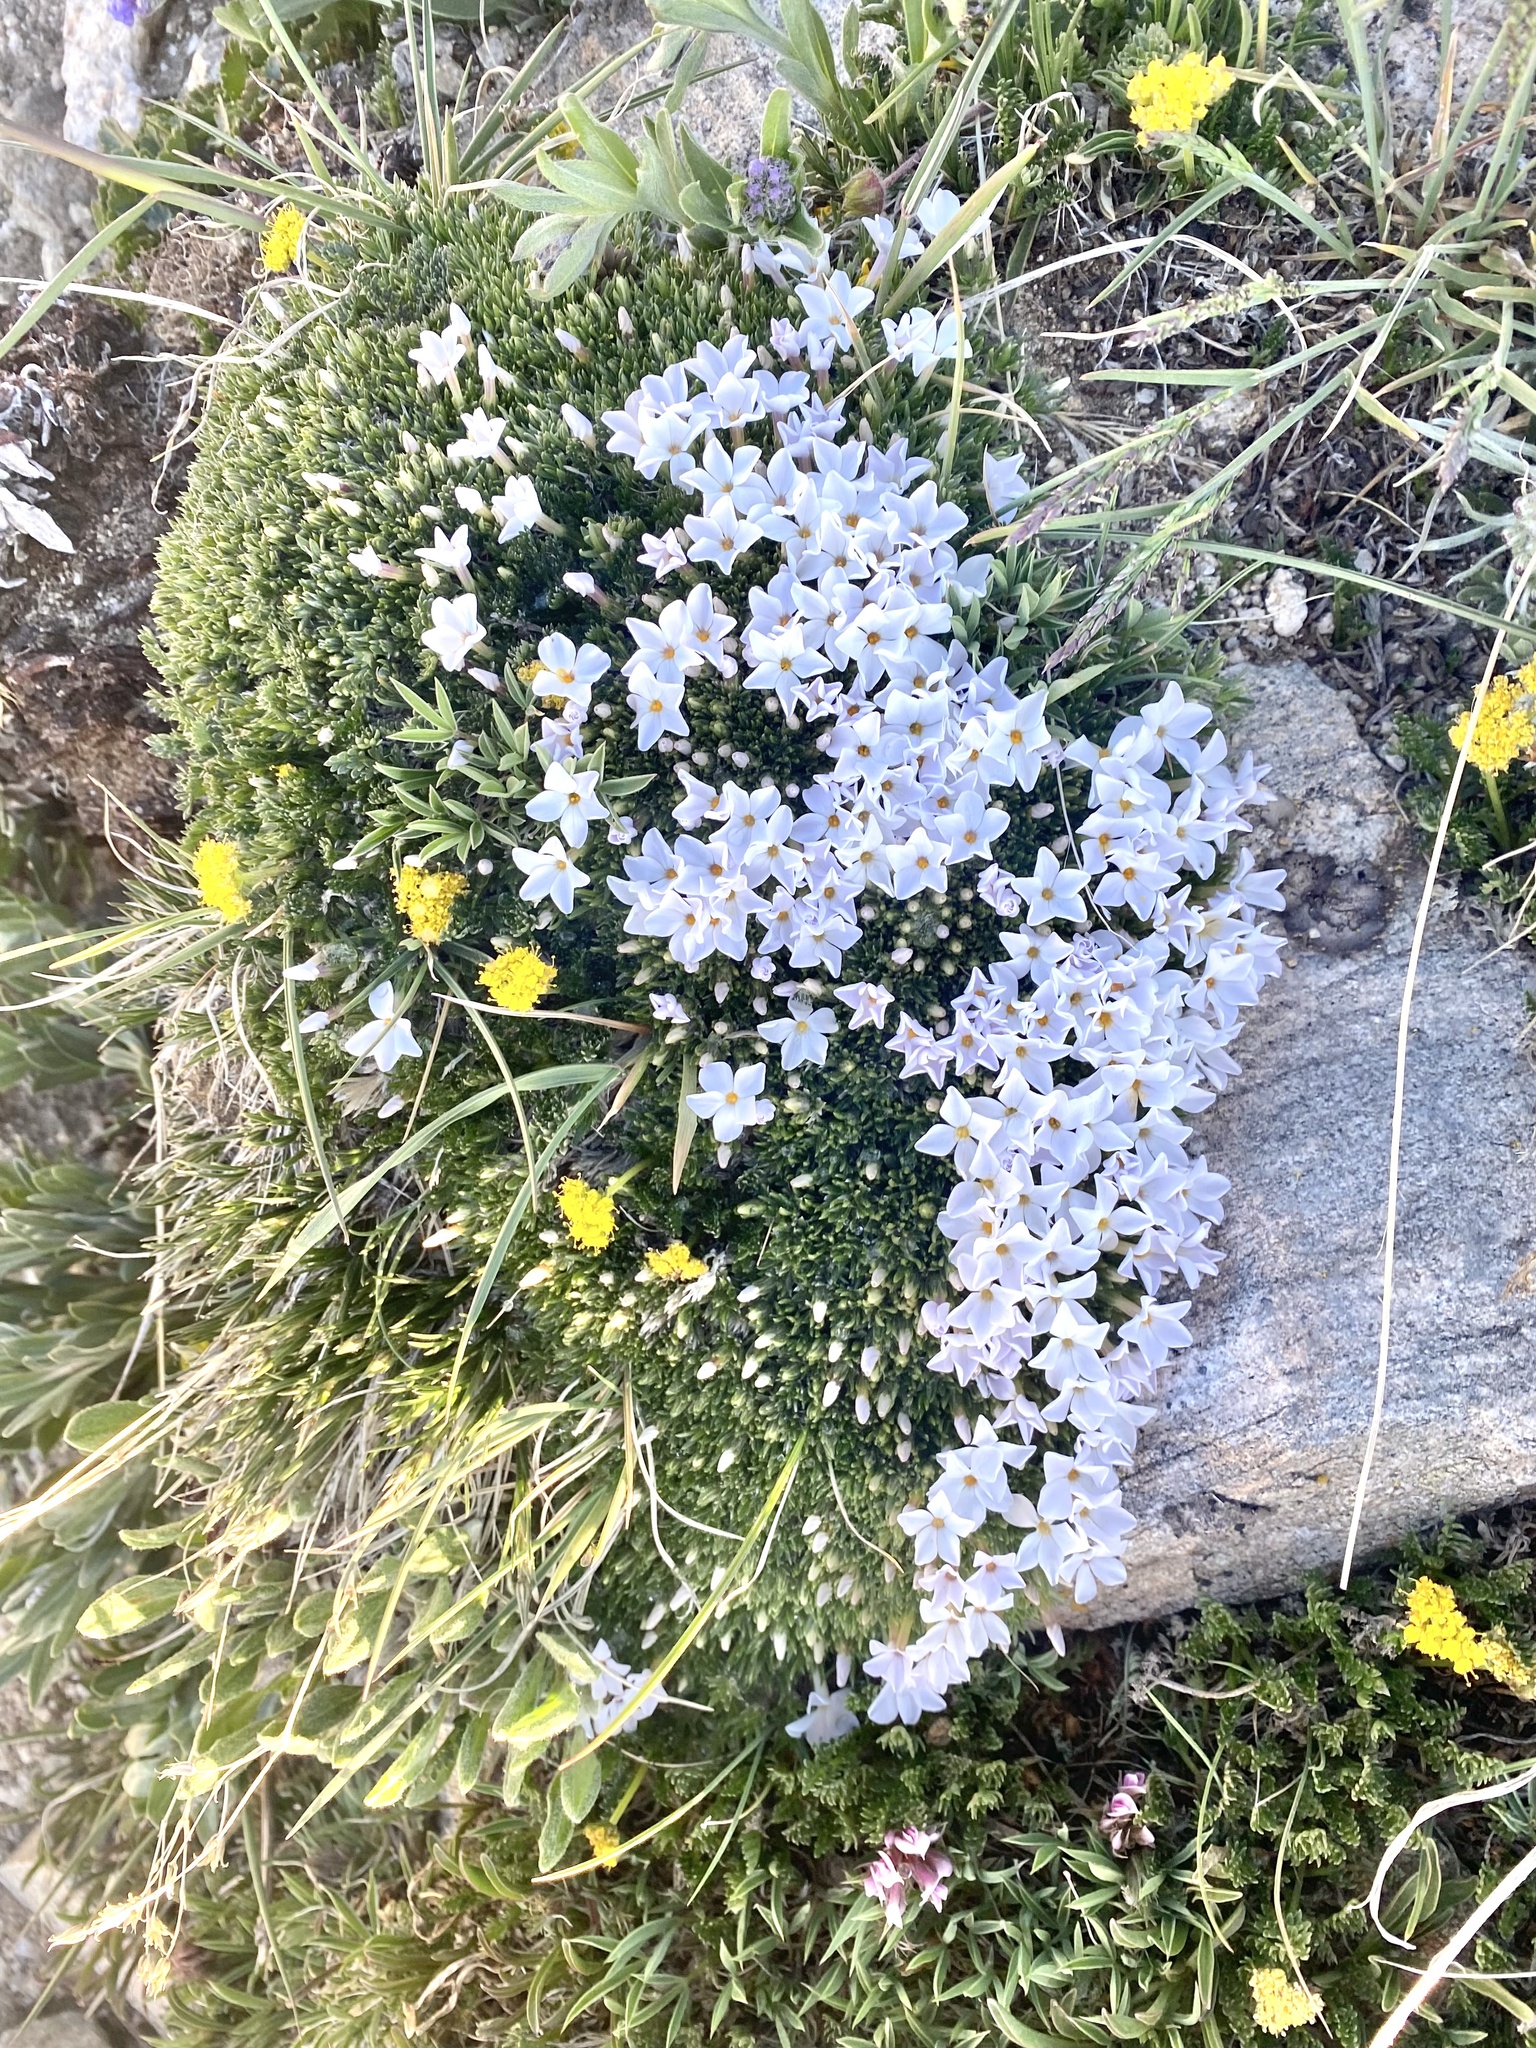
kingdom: Plantae
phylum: Tracheophyta
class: Magnoliopsida
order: Ericales
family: Polemoniaceae
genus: Phlox
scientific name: Phlox condensata
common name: Compact phlox
